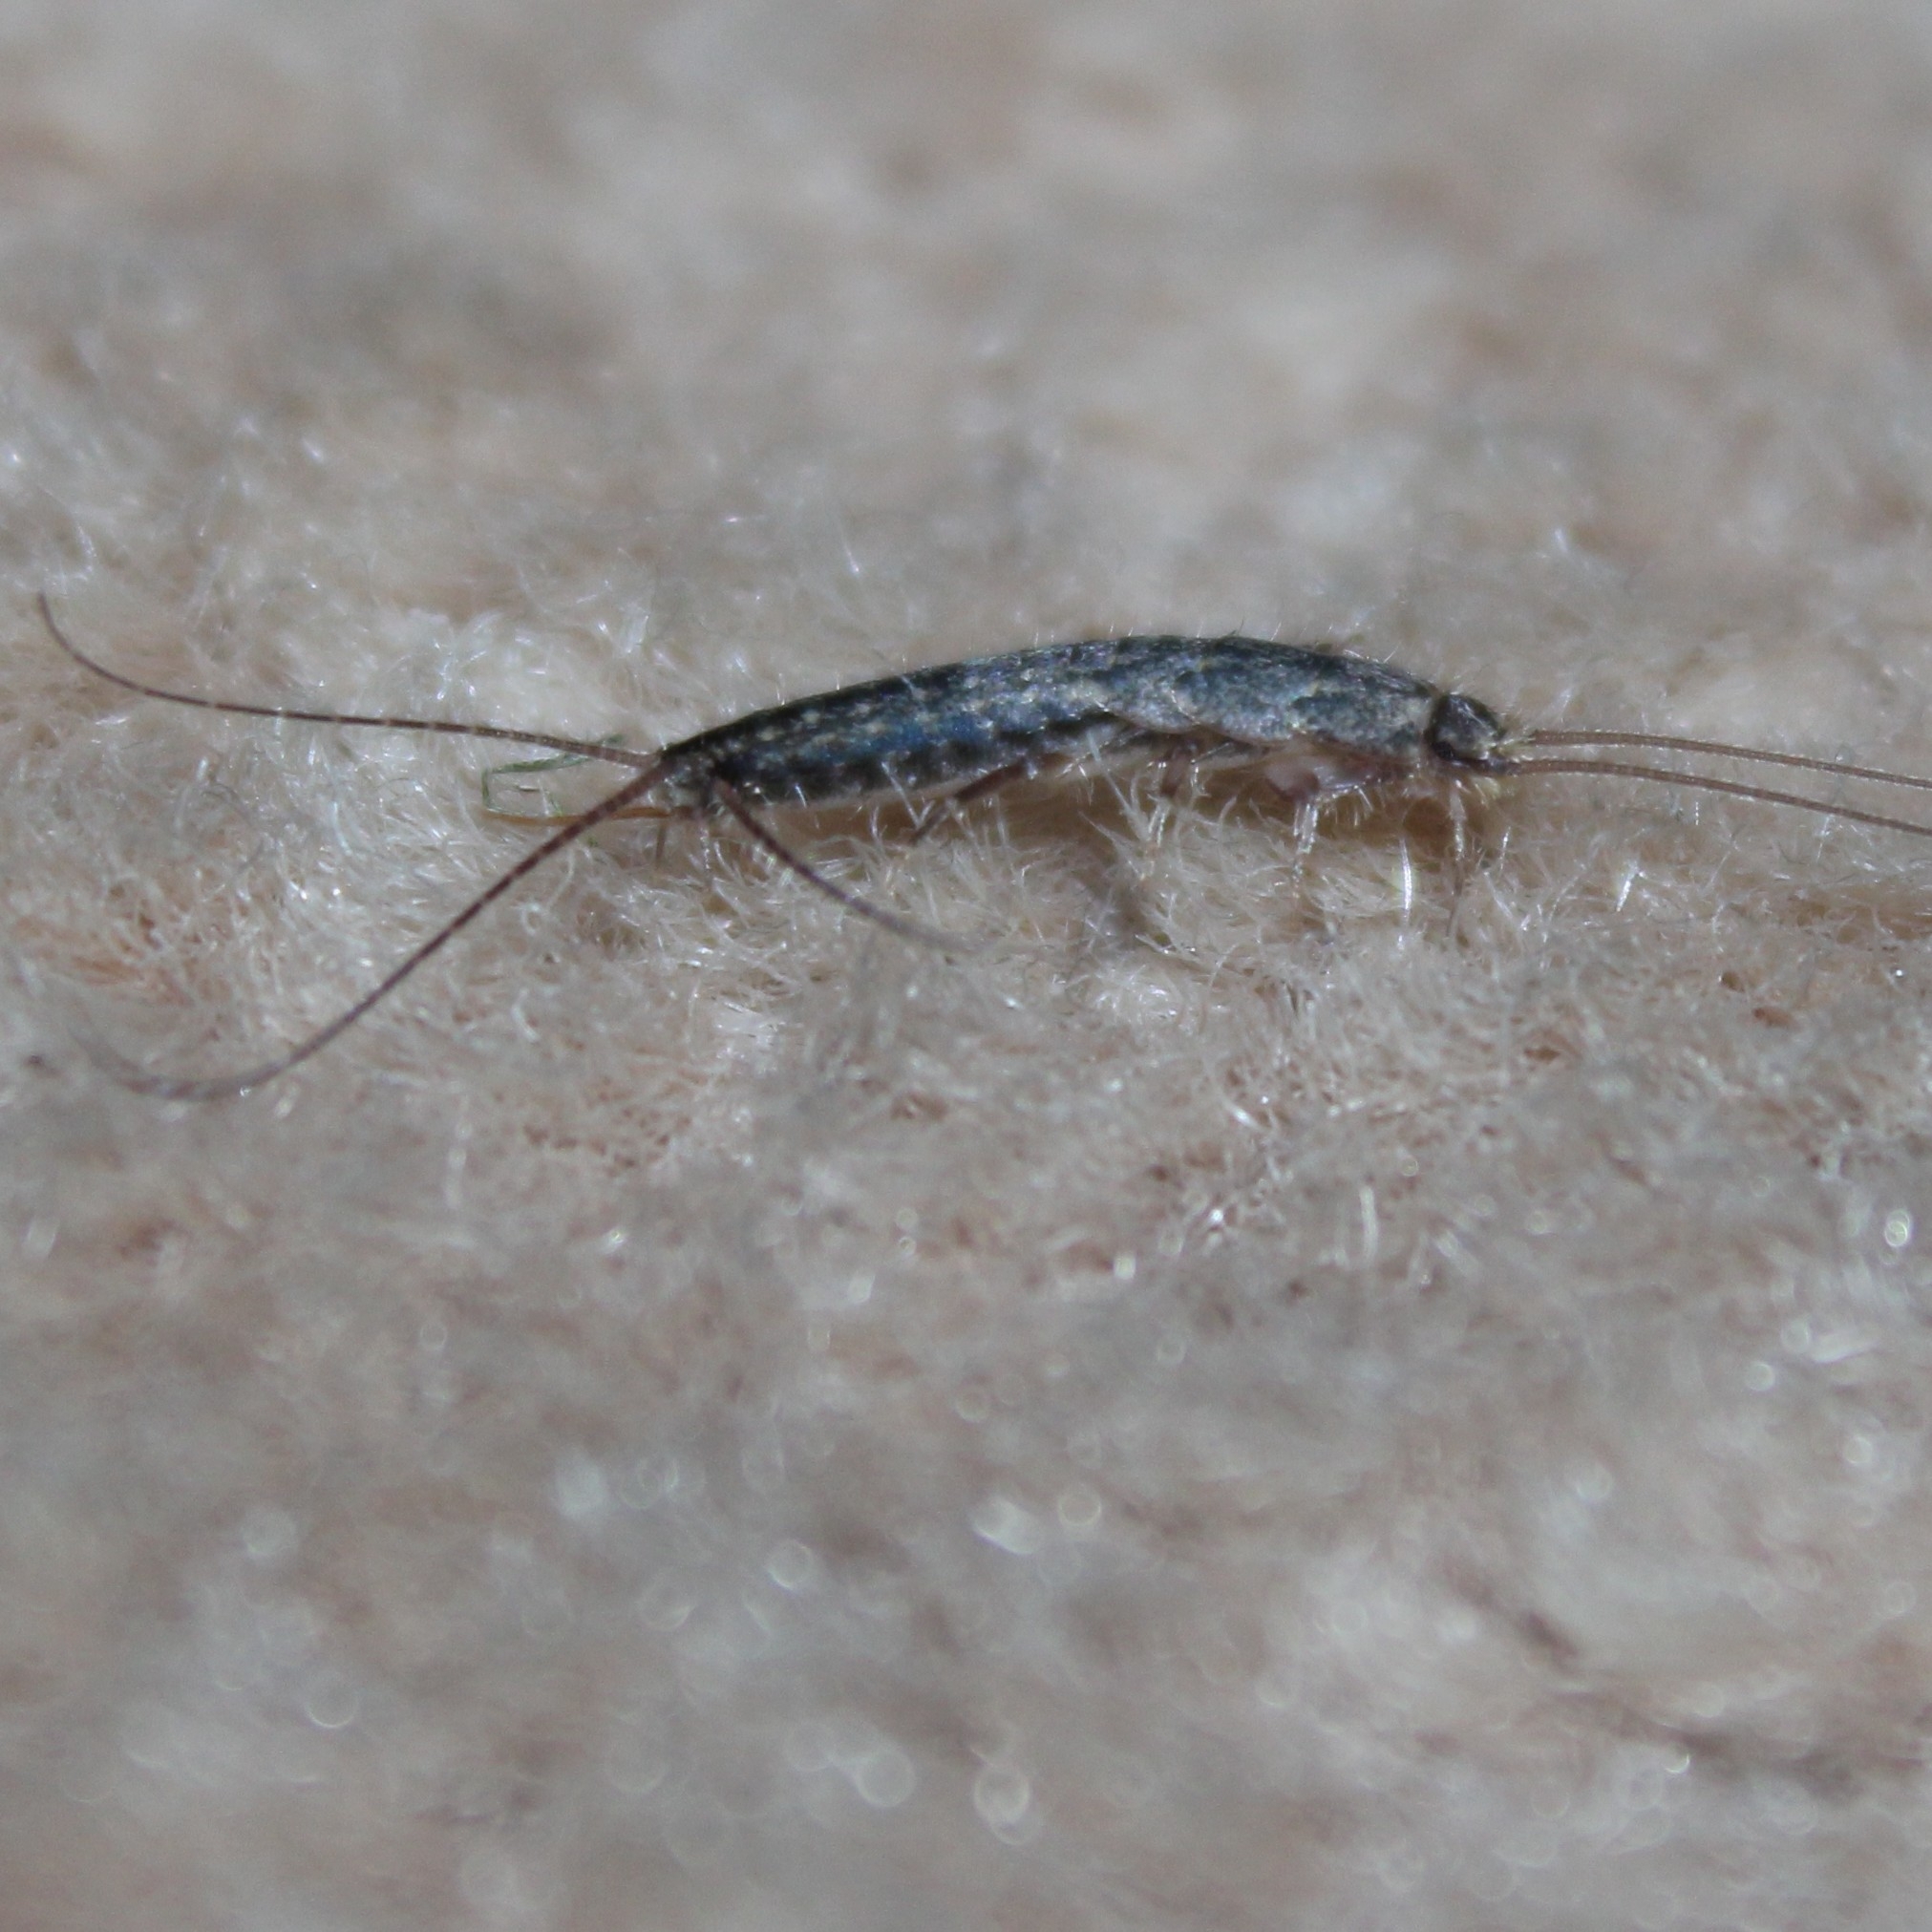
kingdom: Animalia
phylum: Arthropoda
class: Insecta
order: Zygentoma
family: Lepismatidae
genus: Ctenolepisma
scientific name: Ctenolepisma lineata
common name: Four-lined silverfish
